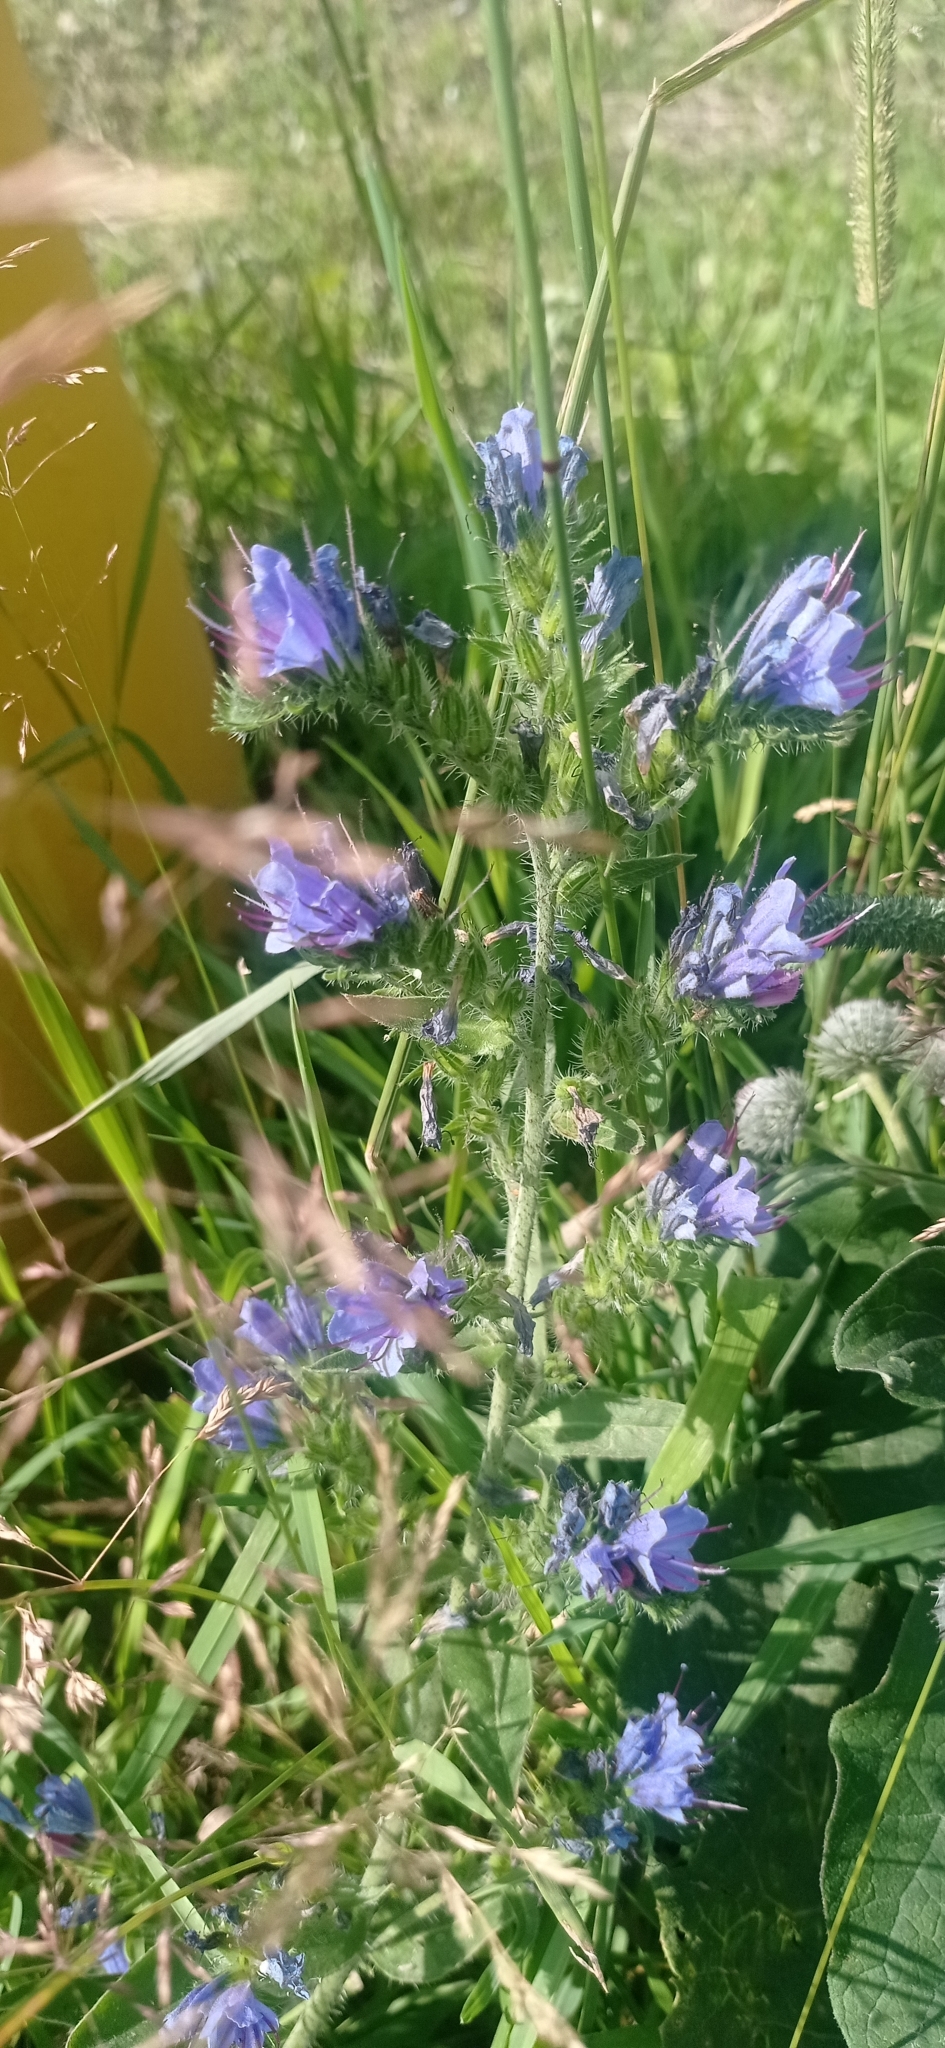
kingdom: Plantae
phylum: Tracheophyta
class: Magnoliopsida
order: Boraginales
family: Boraginaceae
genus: Echium
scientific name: Echium vulgare
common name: Common viper's bugloss
